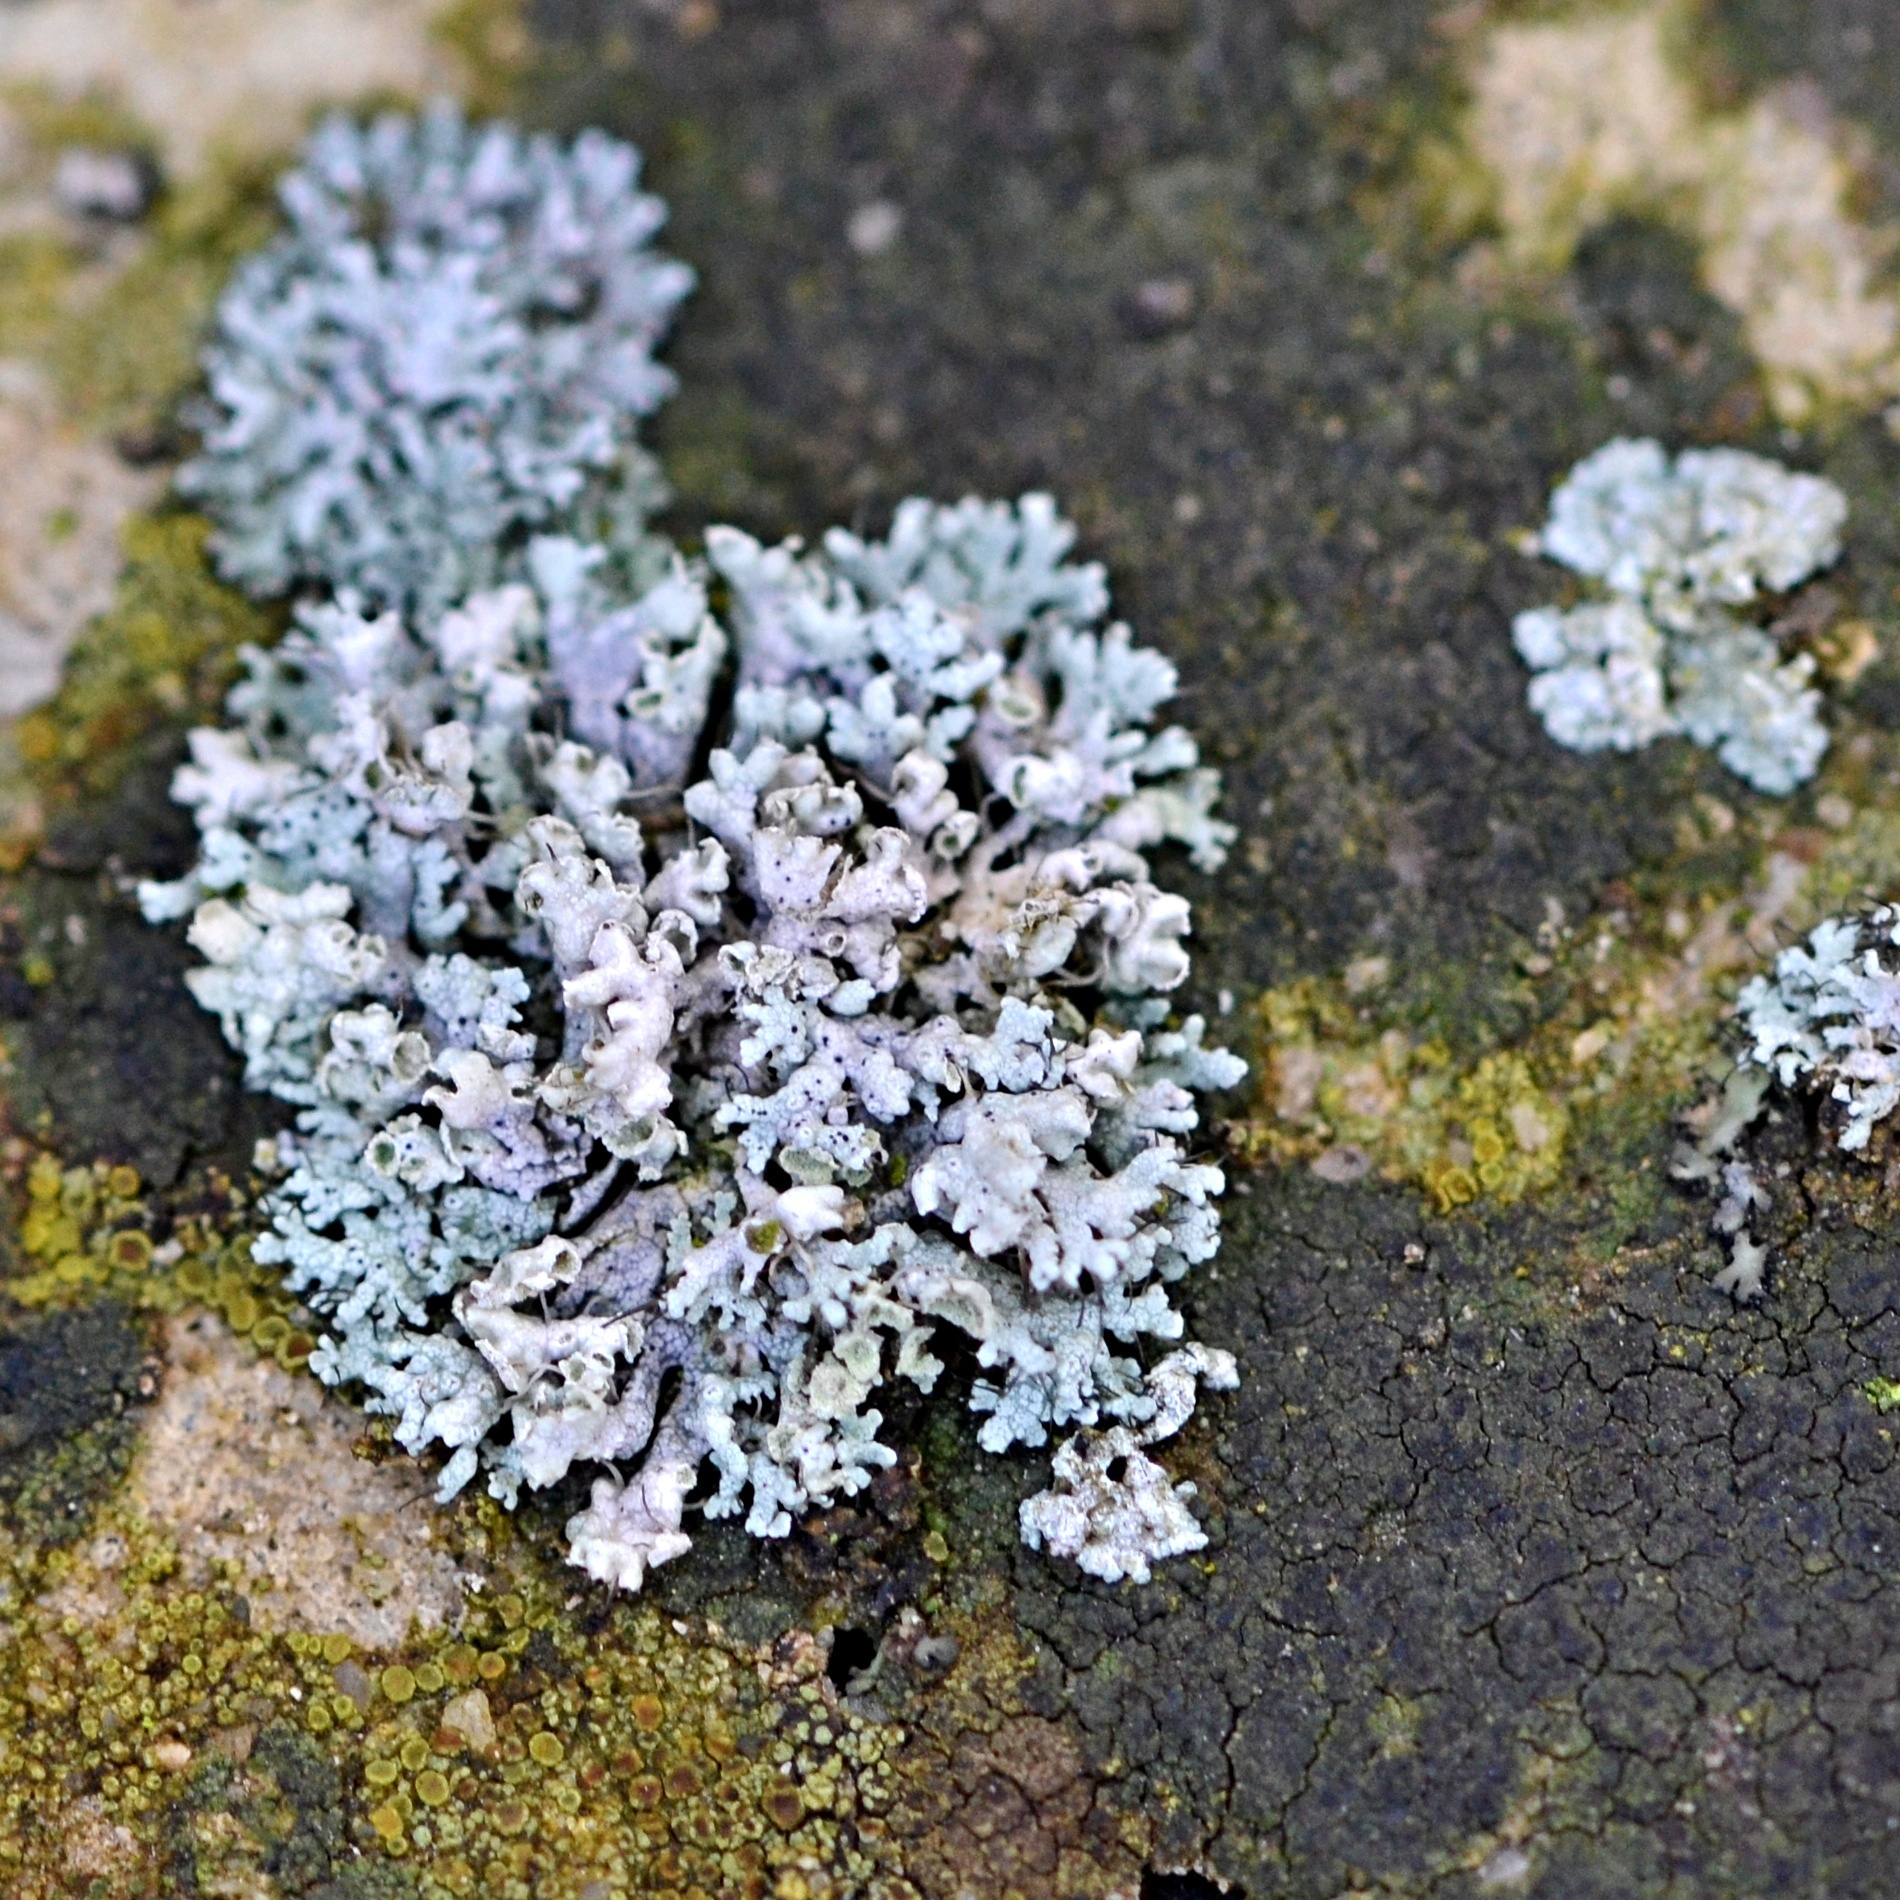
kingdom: Fungi
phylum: Ascomycota
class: Lecanoromycetes
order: Caliciales
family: Physciaceae
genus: Physcia
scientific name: Physcia adscendens
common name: Hooded rosette lichen
